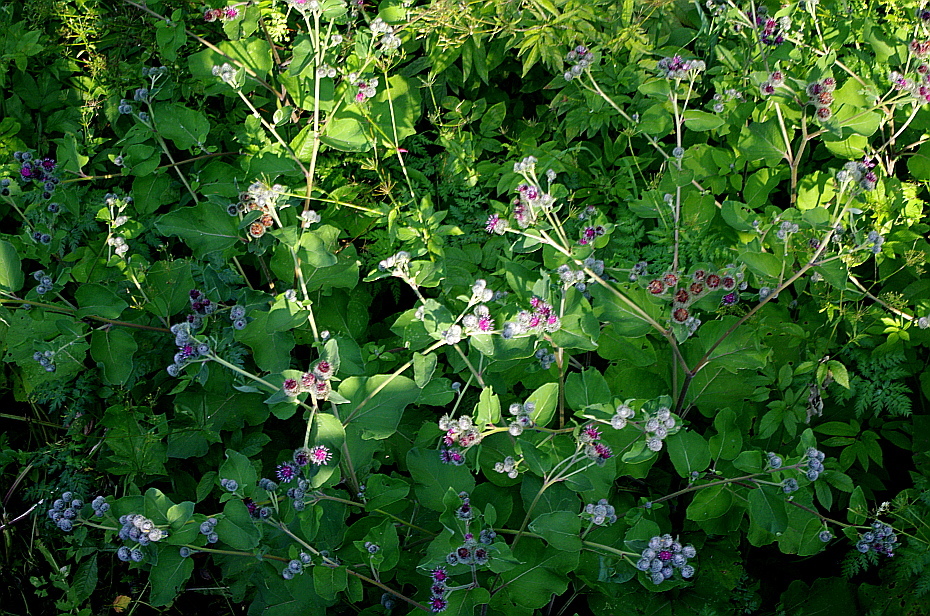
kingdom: Plantae
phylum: Tracheophyta
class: Magnoliopsida
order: Asterales
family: Asteraceae
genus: Arctium
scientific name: Arctium tomentosum
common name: Woolly burdock
